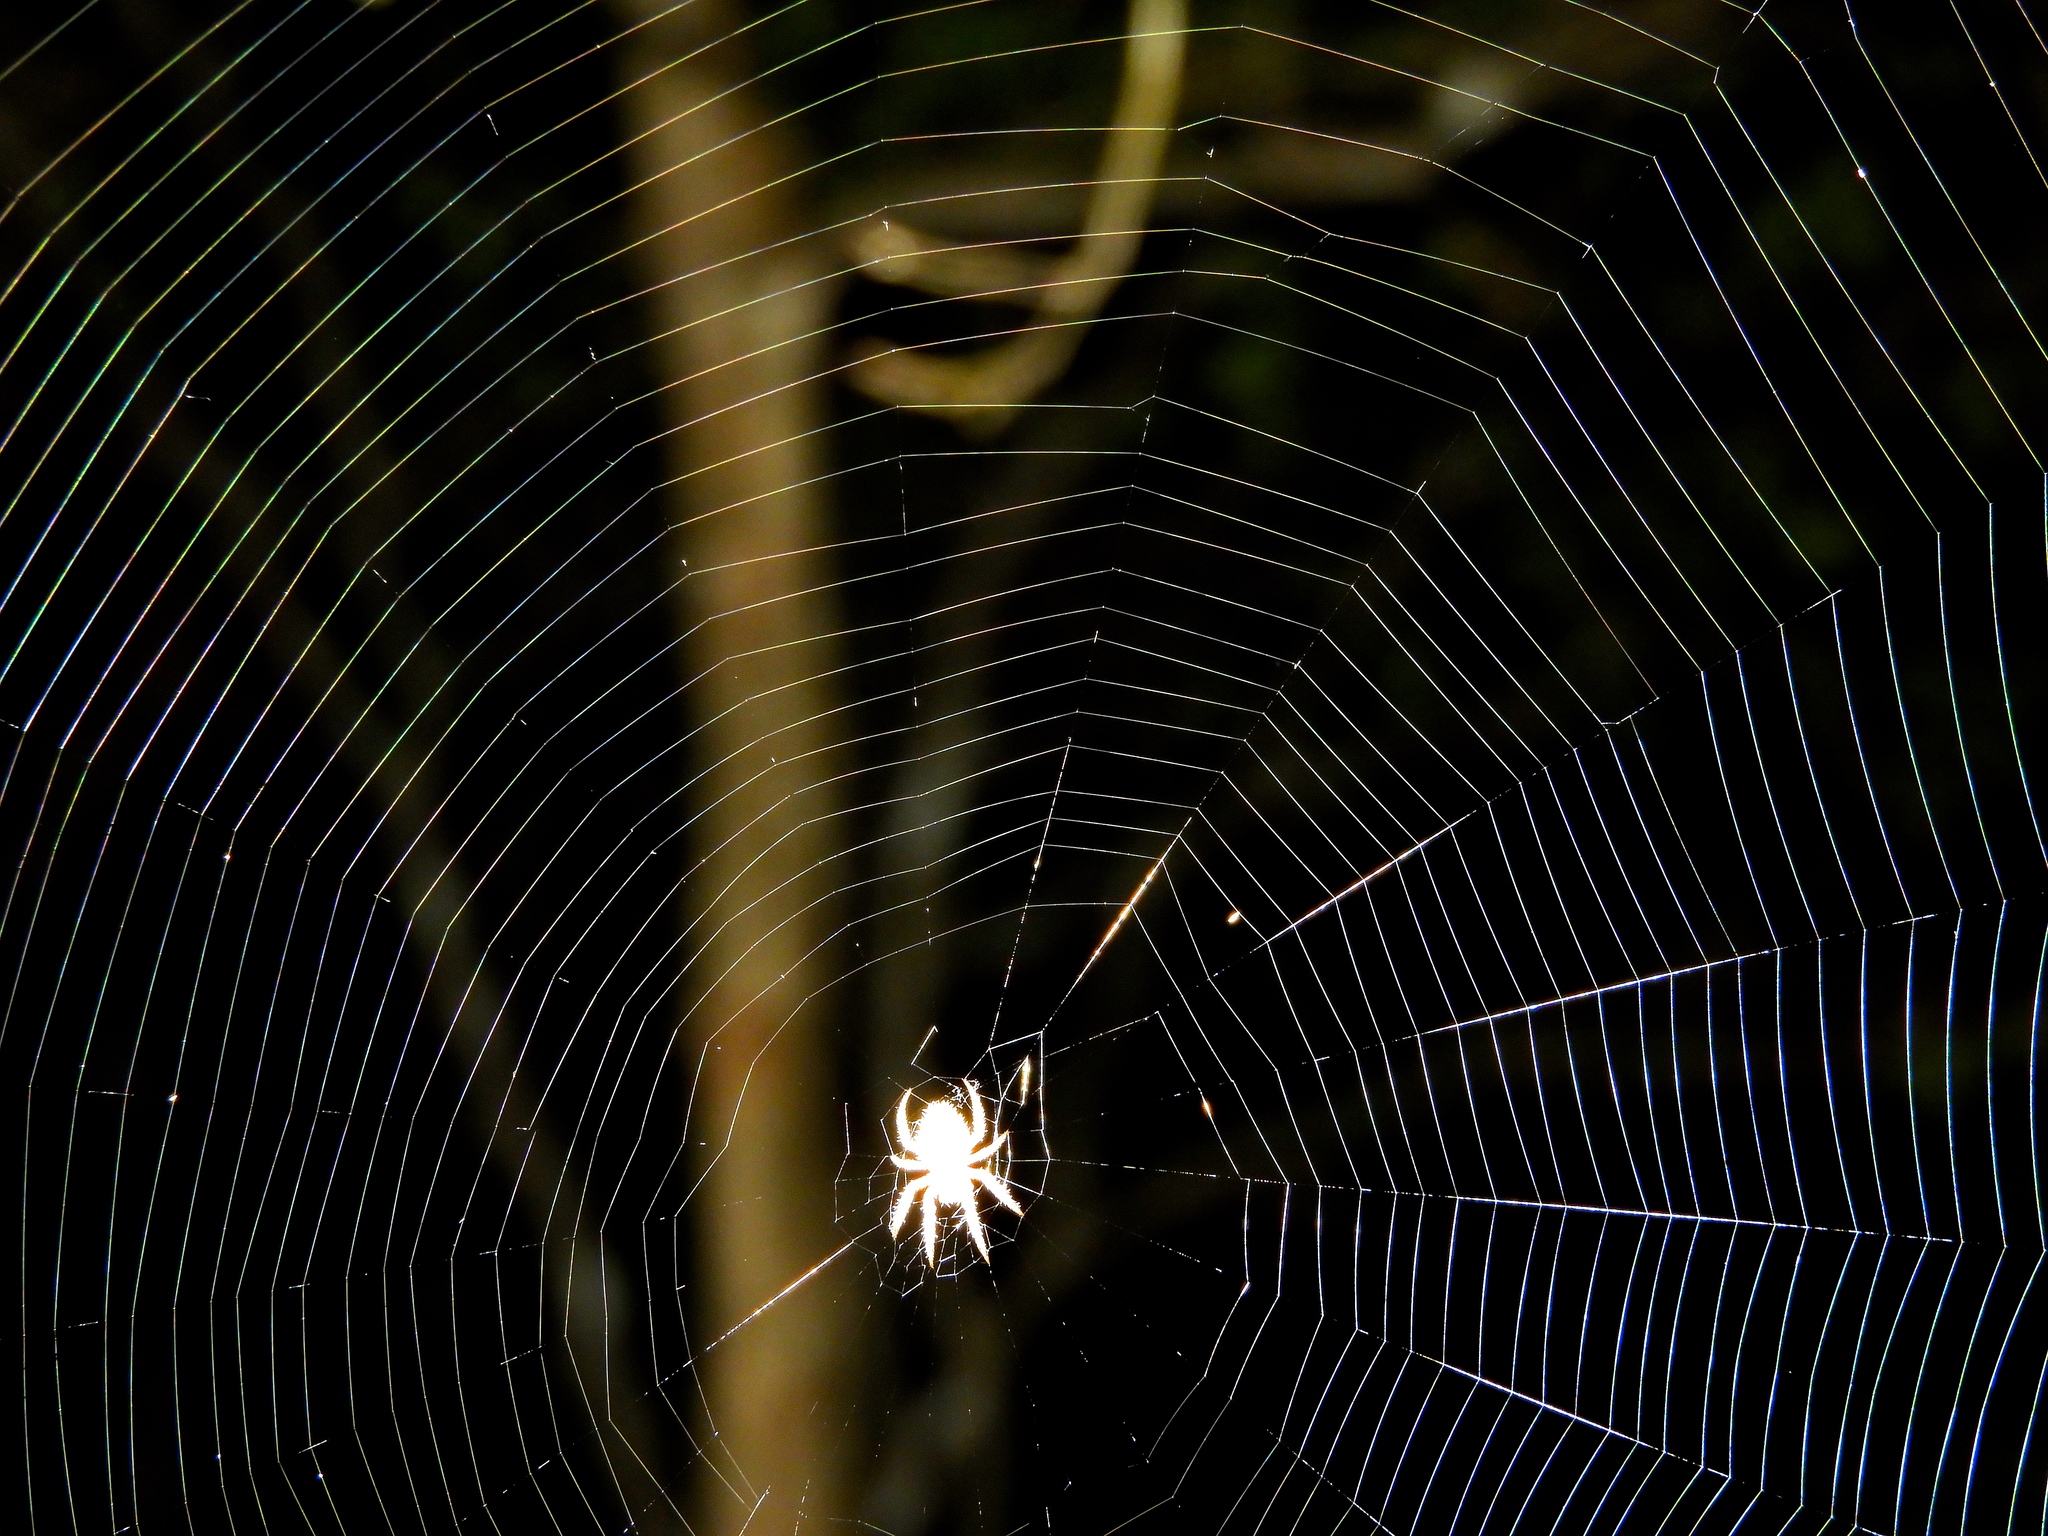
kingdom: Animalia
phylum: Arthropoda
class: Arachnida
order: Araneae
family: Araneidae
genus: Neoscona
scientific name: Neoscona
